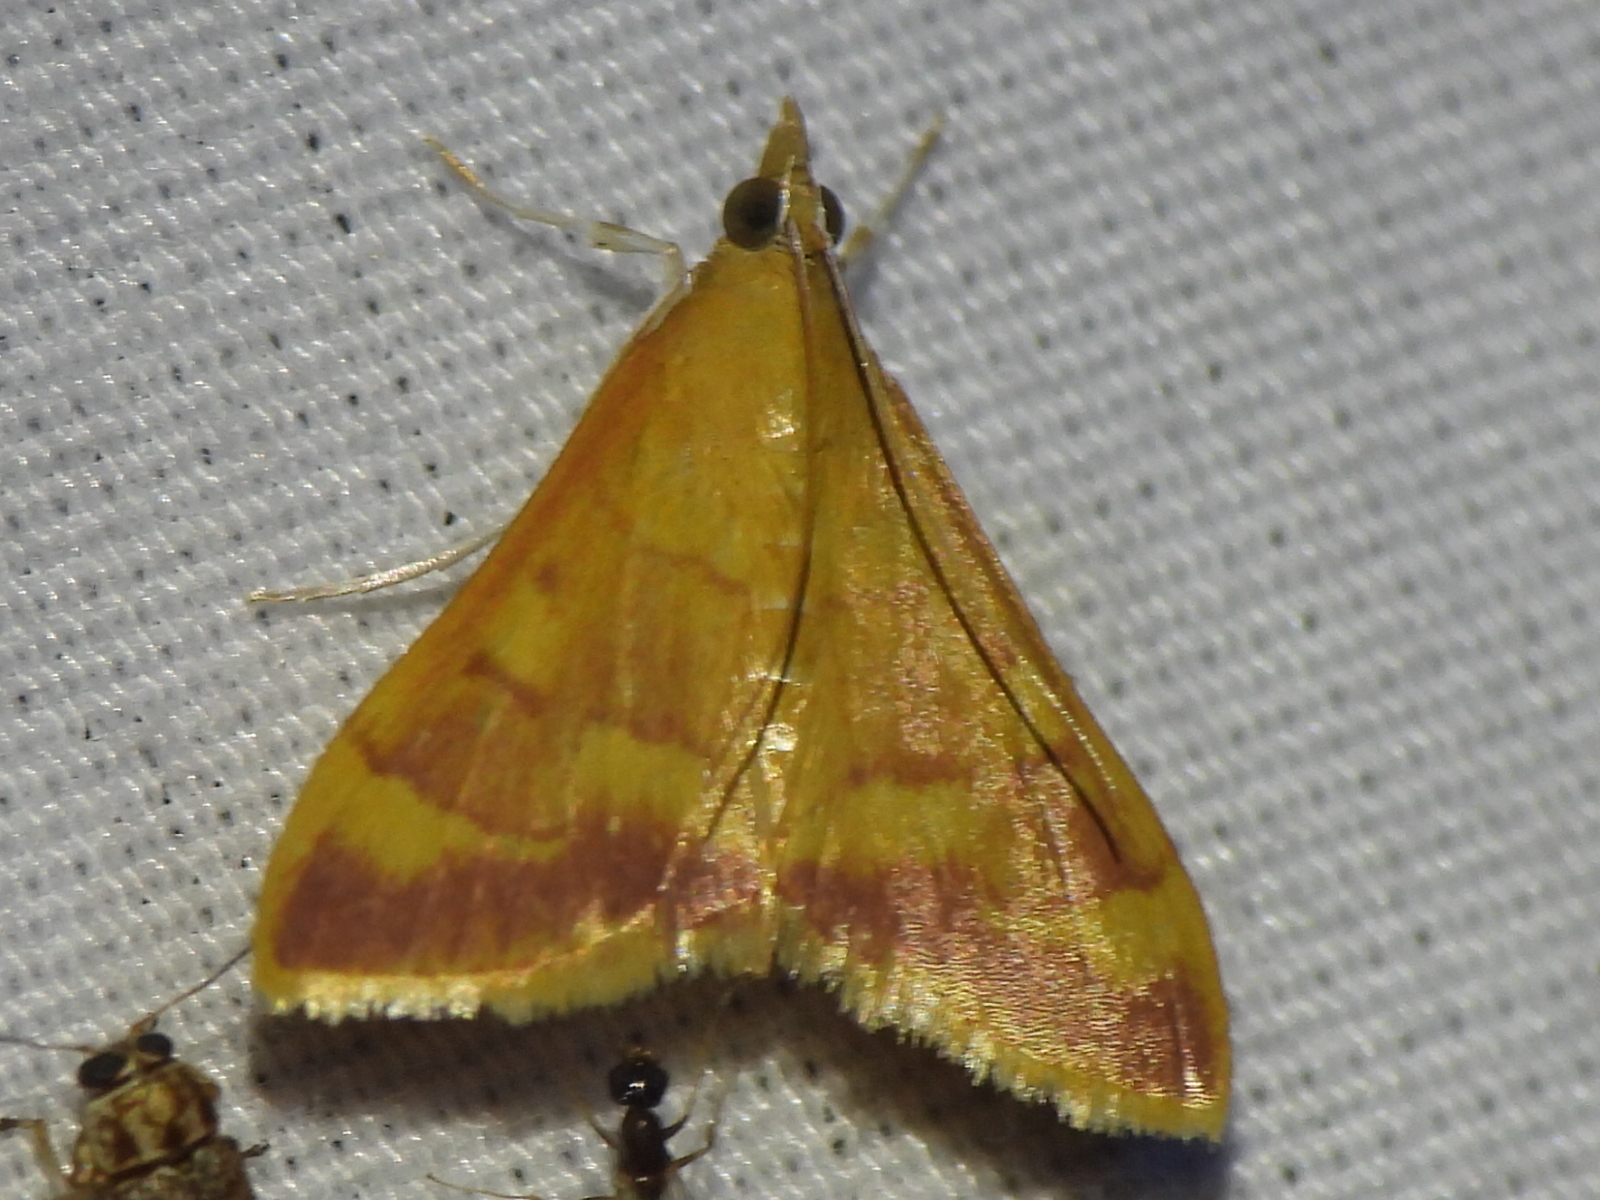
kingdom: Animalia
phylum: Arthropoda
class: Insecta
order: Lepidoptera
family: Crambidae
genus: Pyrausta
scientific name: Pyrausta pseudonythesalis
